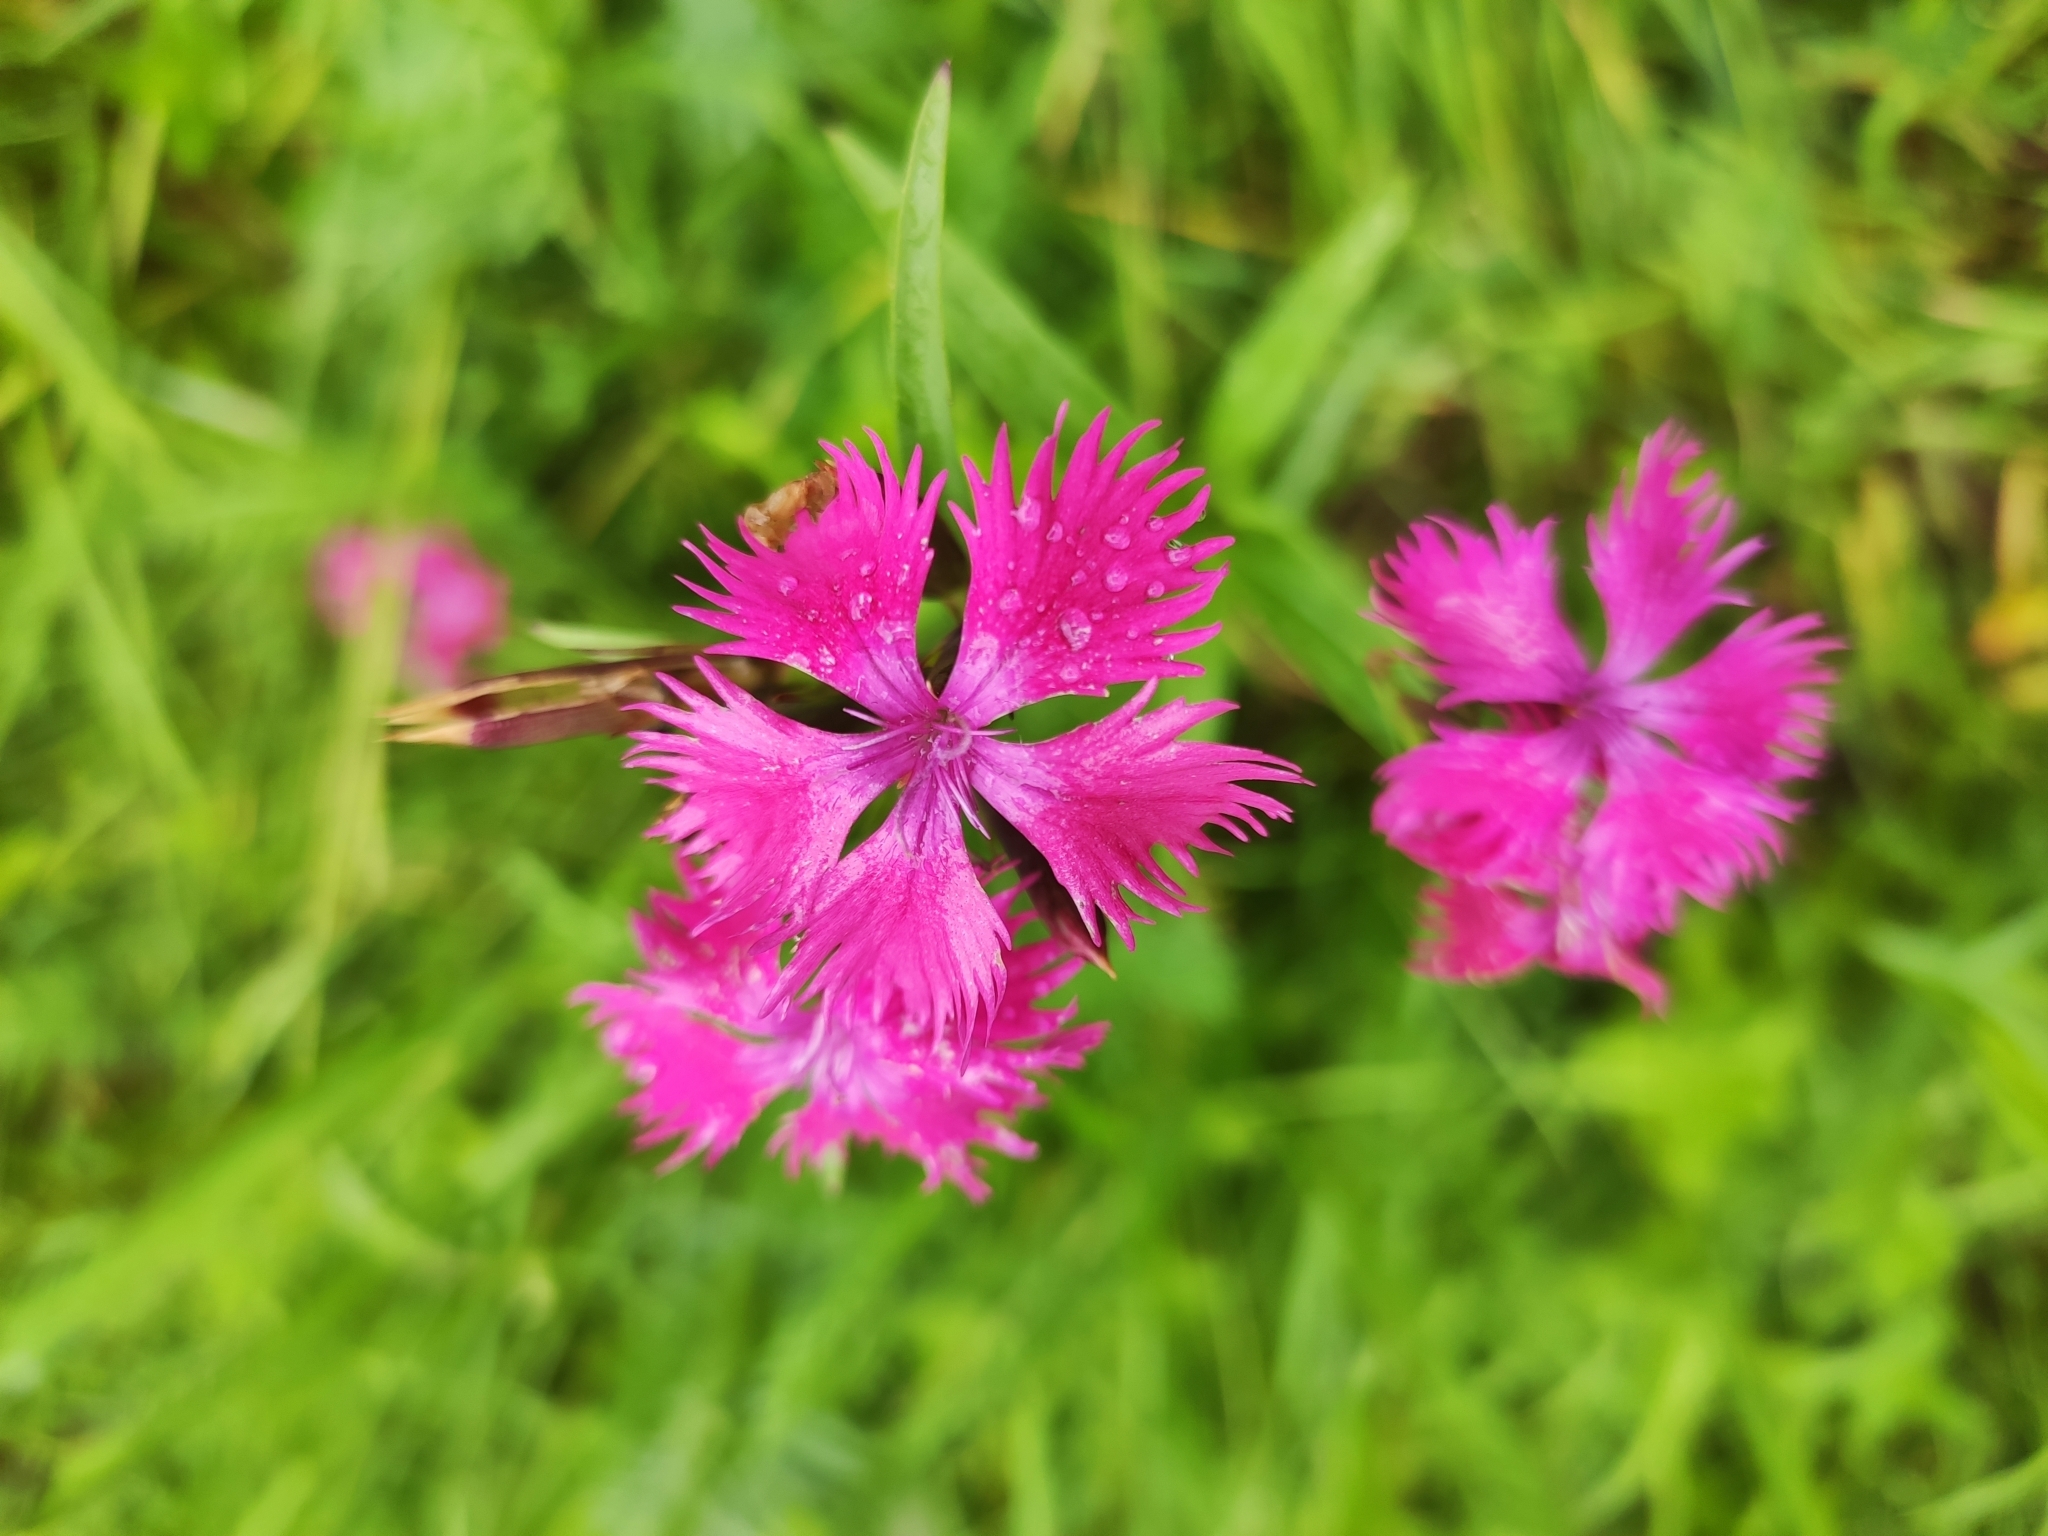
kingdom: Plantae
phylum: Tracheophyta
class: Magnoliopsida
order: Caryophyllales
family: Caryophyllaceae
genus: Dianthus
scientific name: Dianthus courtoisii
